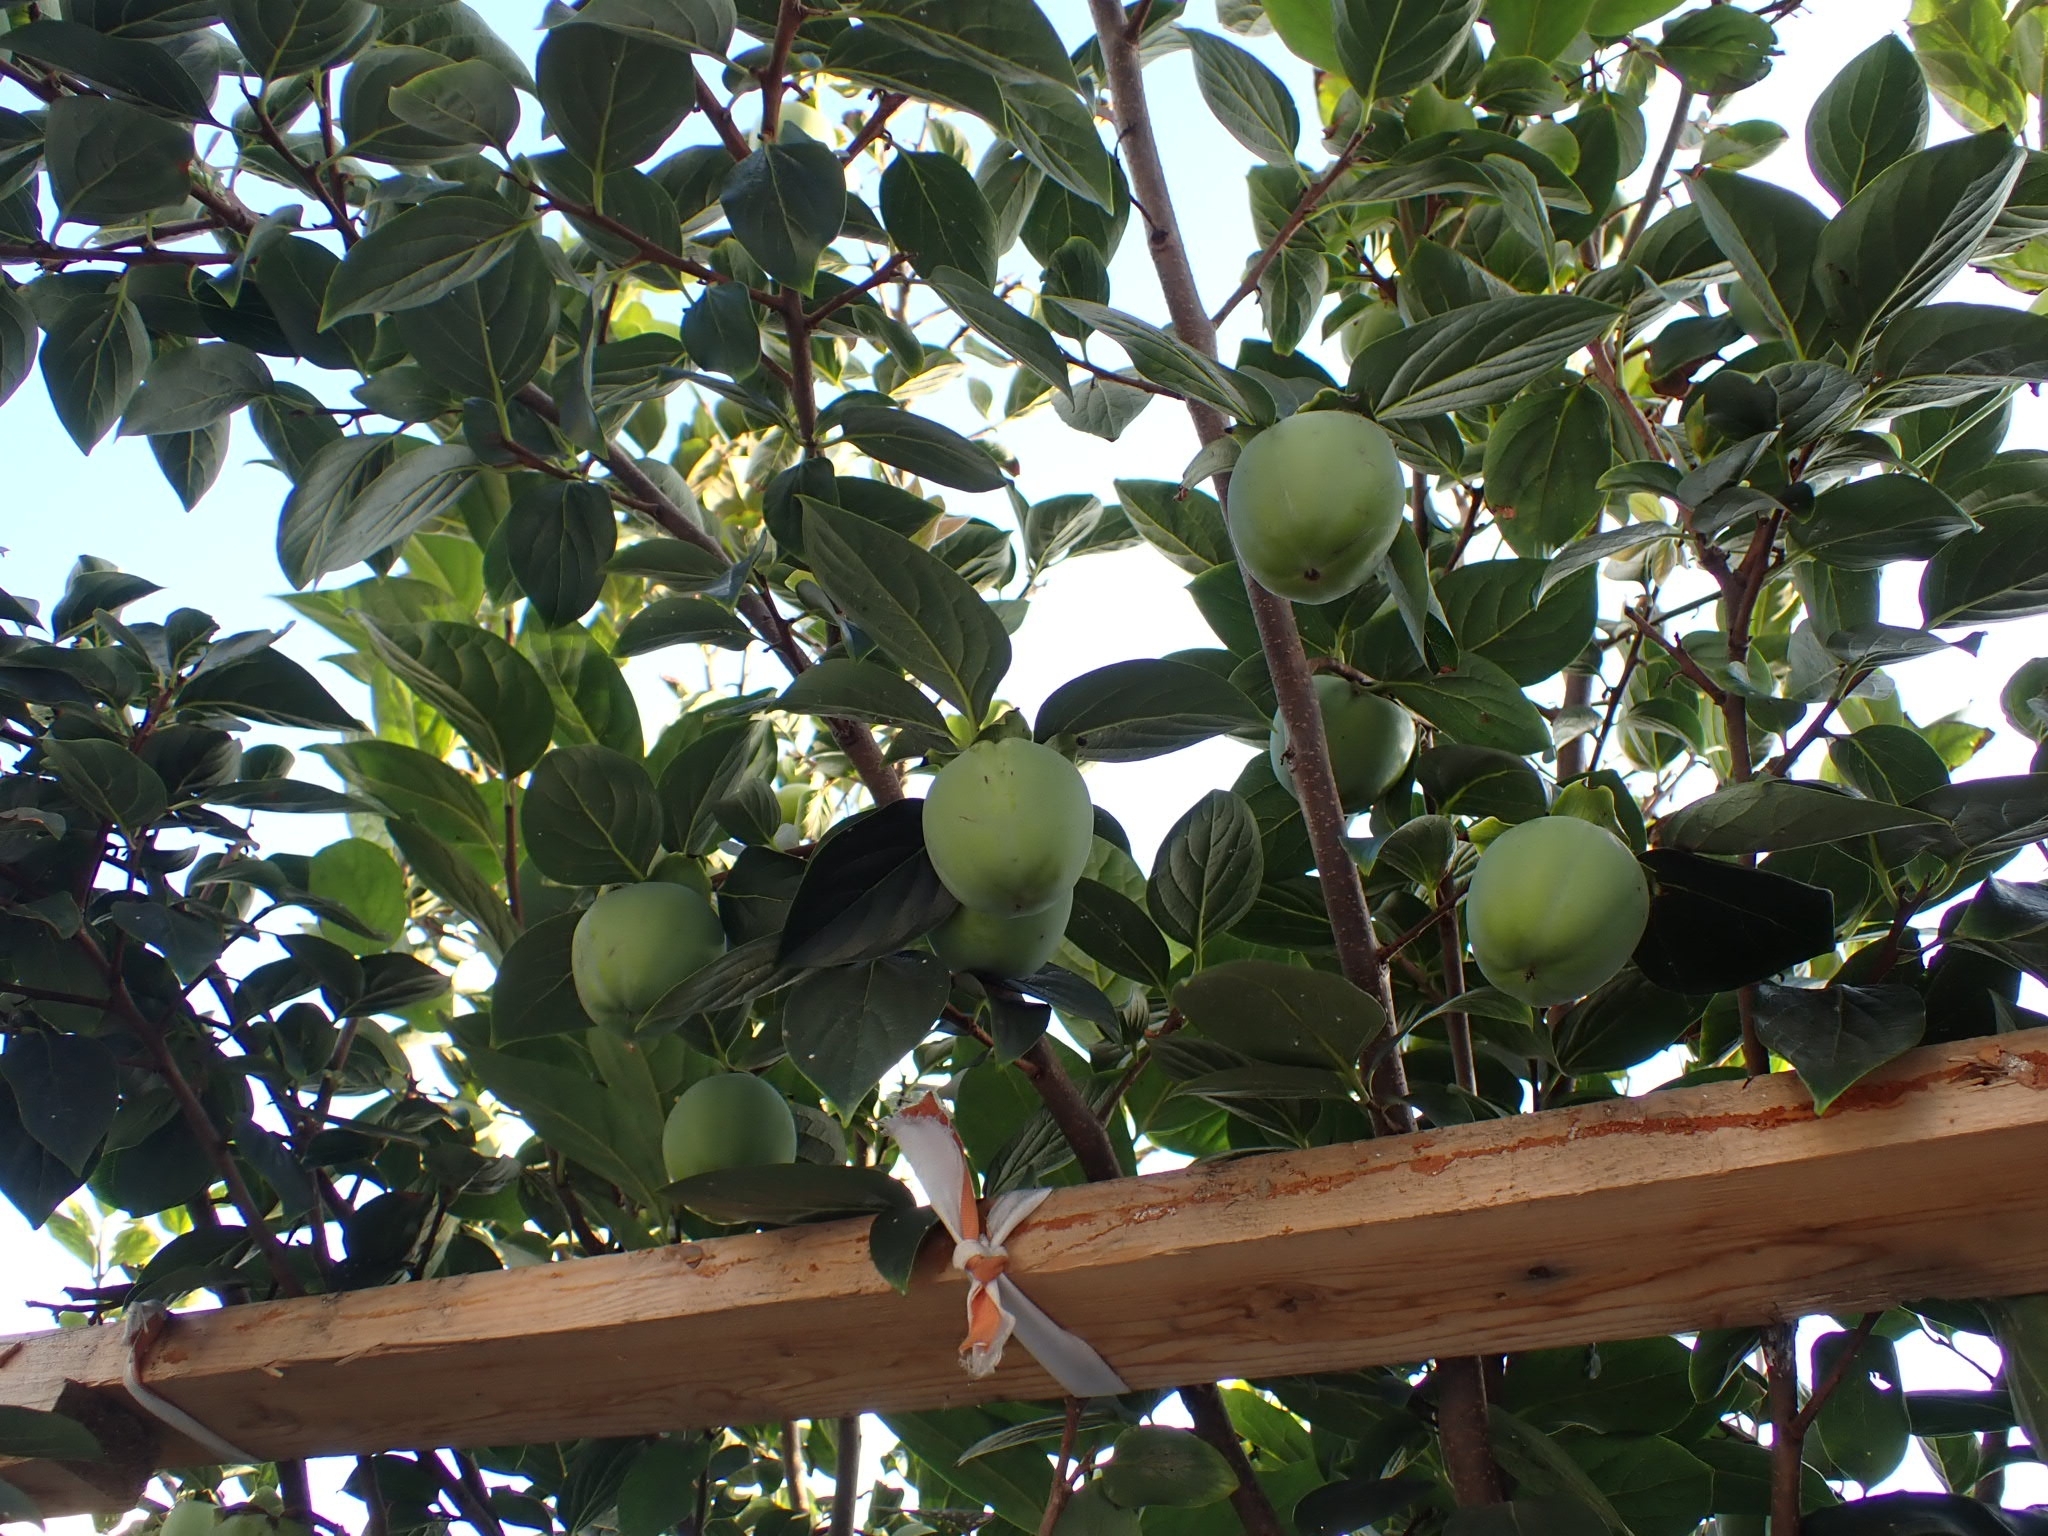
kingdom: Plantae
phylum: Tracheophyta
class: Magnoliopsida
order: Rosales
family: Rosaceae
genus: Prunus
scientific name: Prunus domestica
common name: Wild plum
